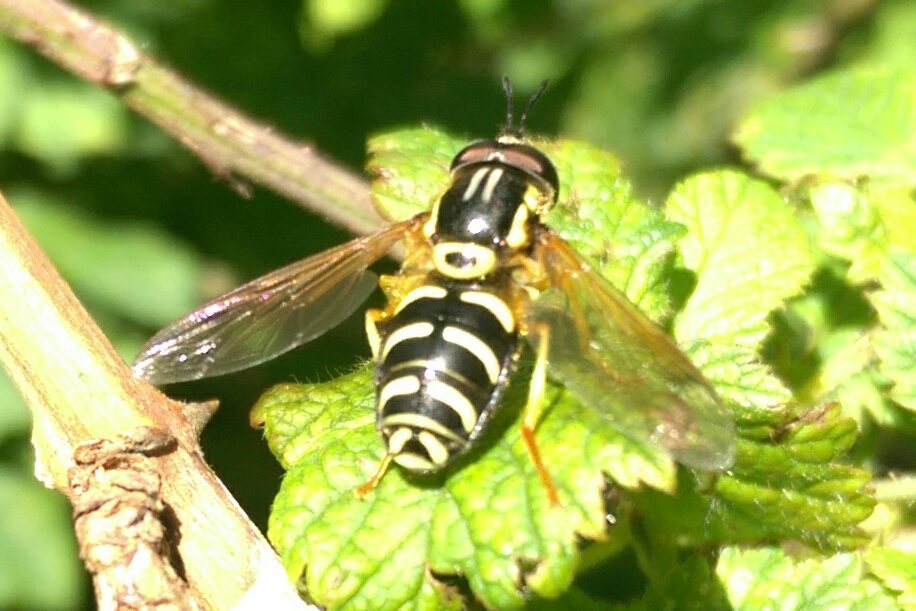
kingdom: Animalia
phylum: Arthropoda
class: Insecta
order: Diptera
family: Syrphidae
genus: Chrysotoxum
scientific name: Chrysotoxum festivum
